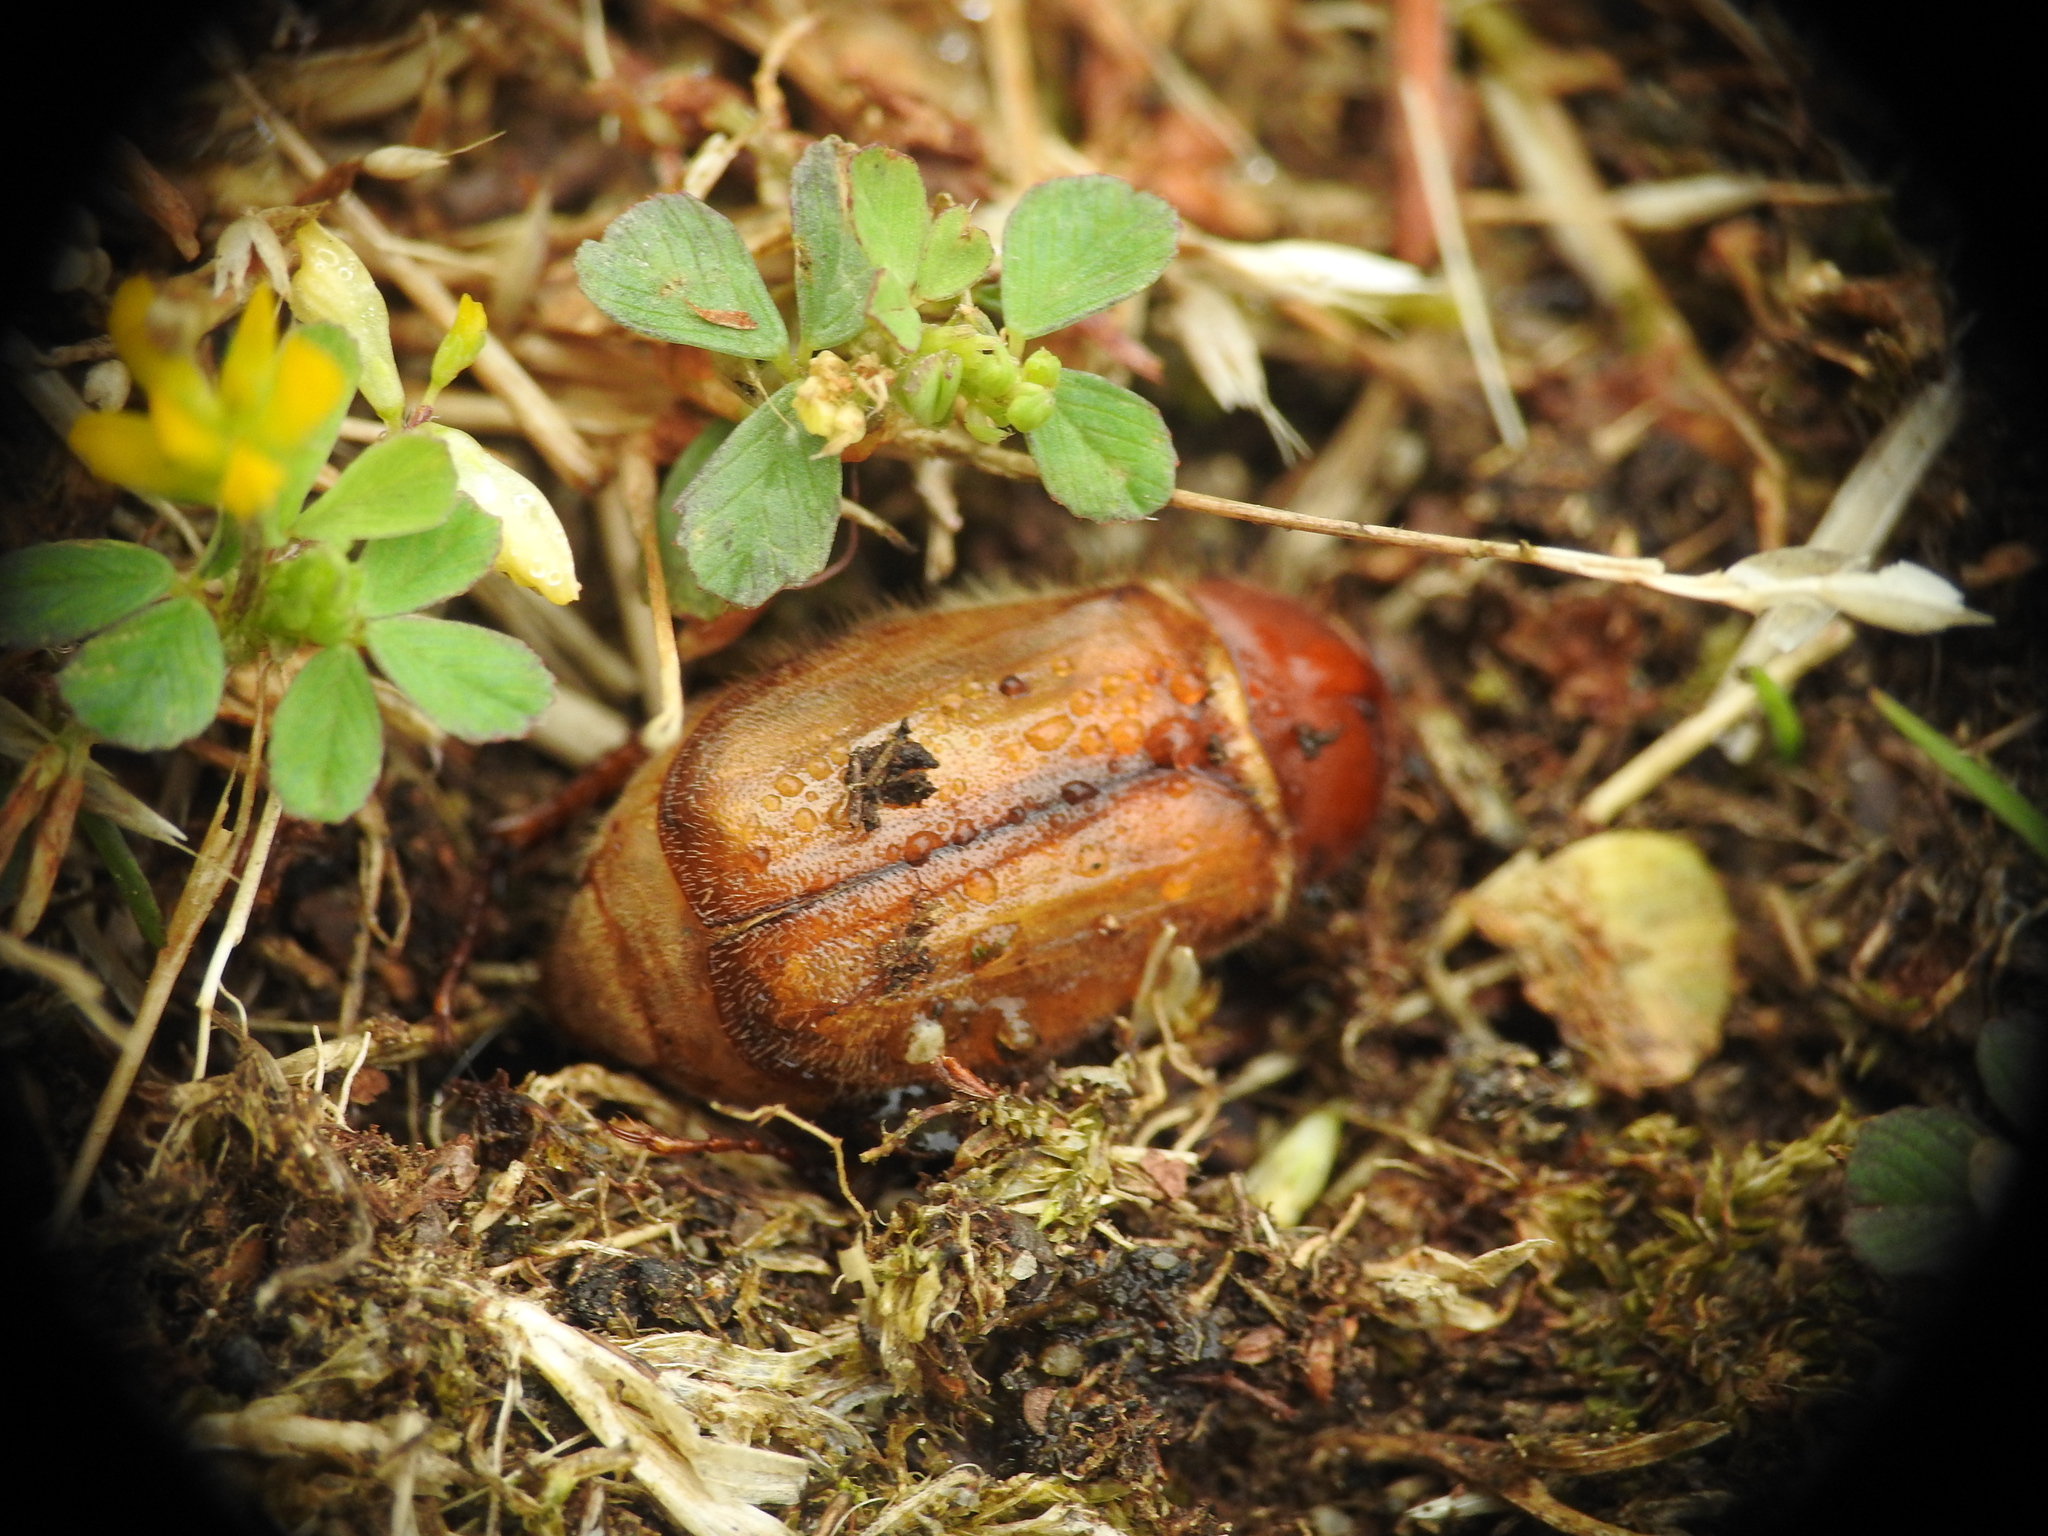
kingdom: Animalia
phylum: Arthropoda
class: Insecta
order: Coleoptera
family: Scarabaeidae
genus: Amphimallon
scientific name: Amphimallon majale
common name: European chafer
